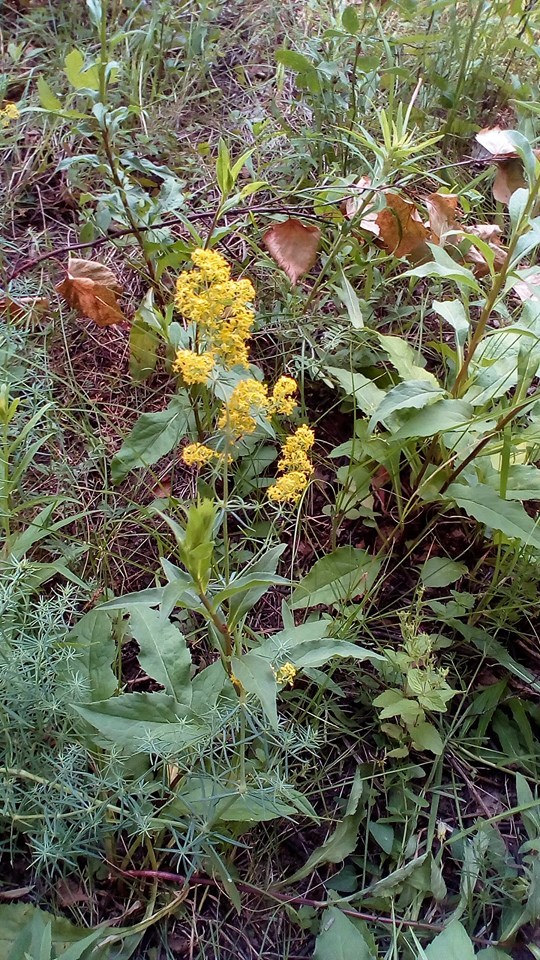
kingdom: Plantae
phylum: Tracheophyta
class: Magnoliopsida
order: Gentianales
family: Rubiaceae
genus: Galium
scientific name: Galium verum
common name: Lady's bedstraw
